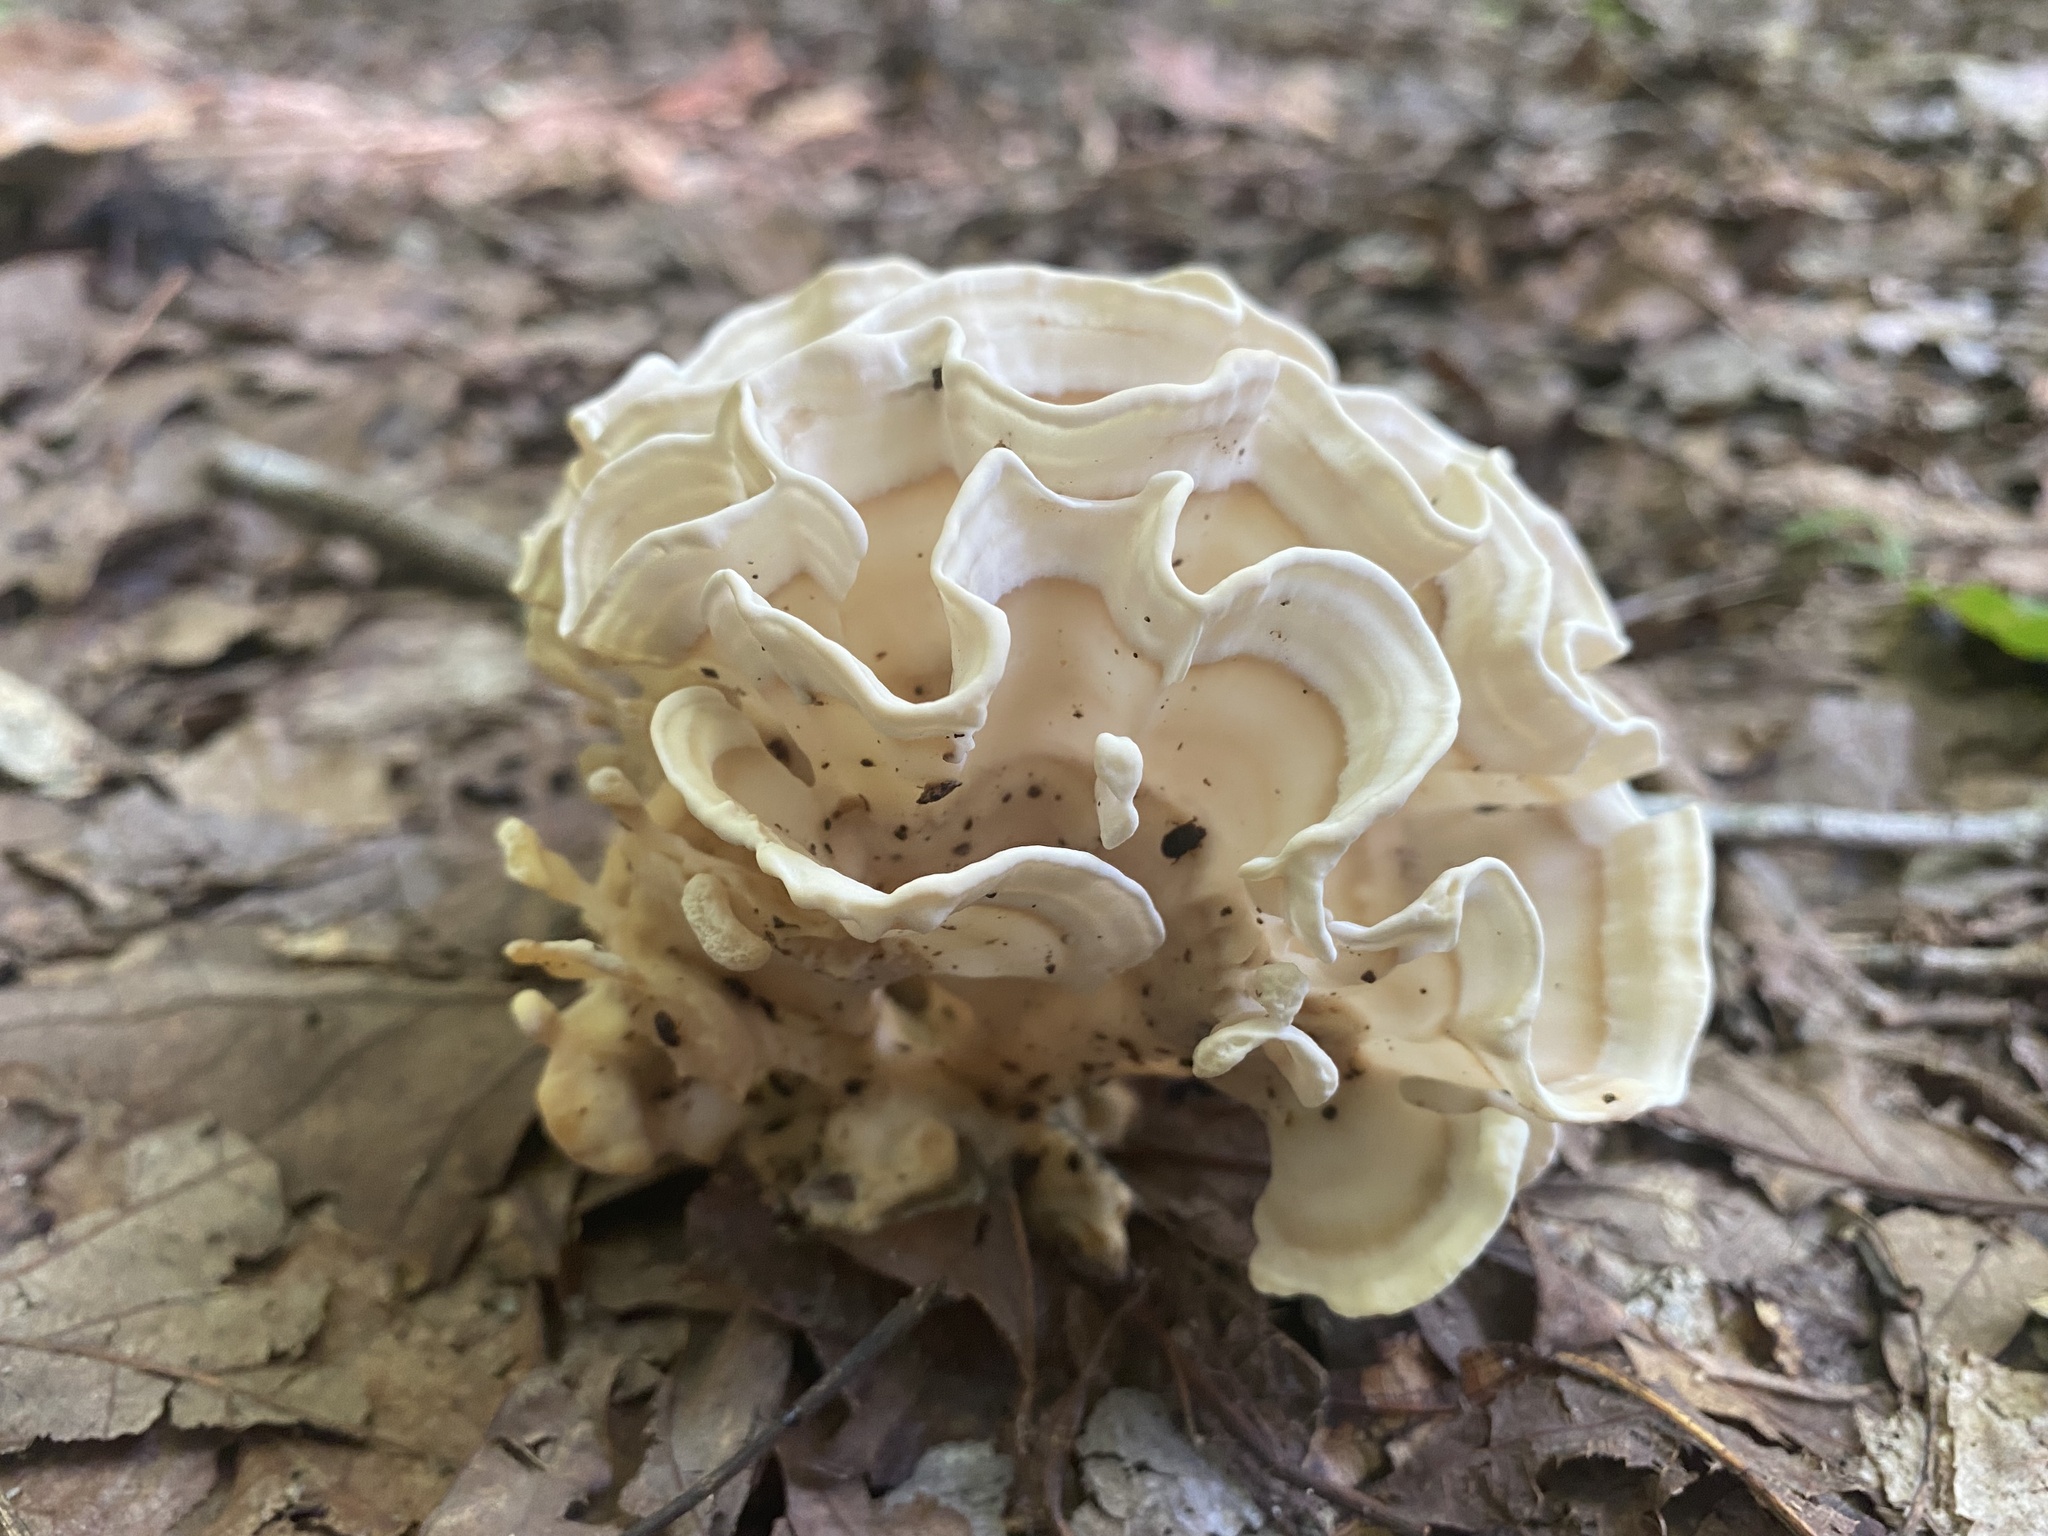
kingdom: Fungi
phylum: Basidiomycota
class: Agaricomycetes
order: Polyporales
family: Sparassidaceae
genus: Sparassis
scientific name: Sparassis spathulata
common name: Eastern cauliflower mushroom
